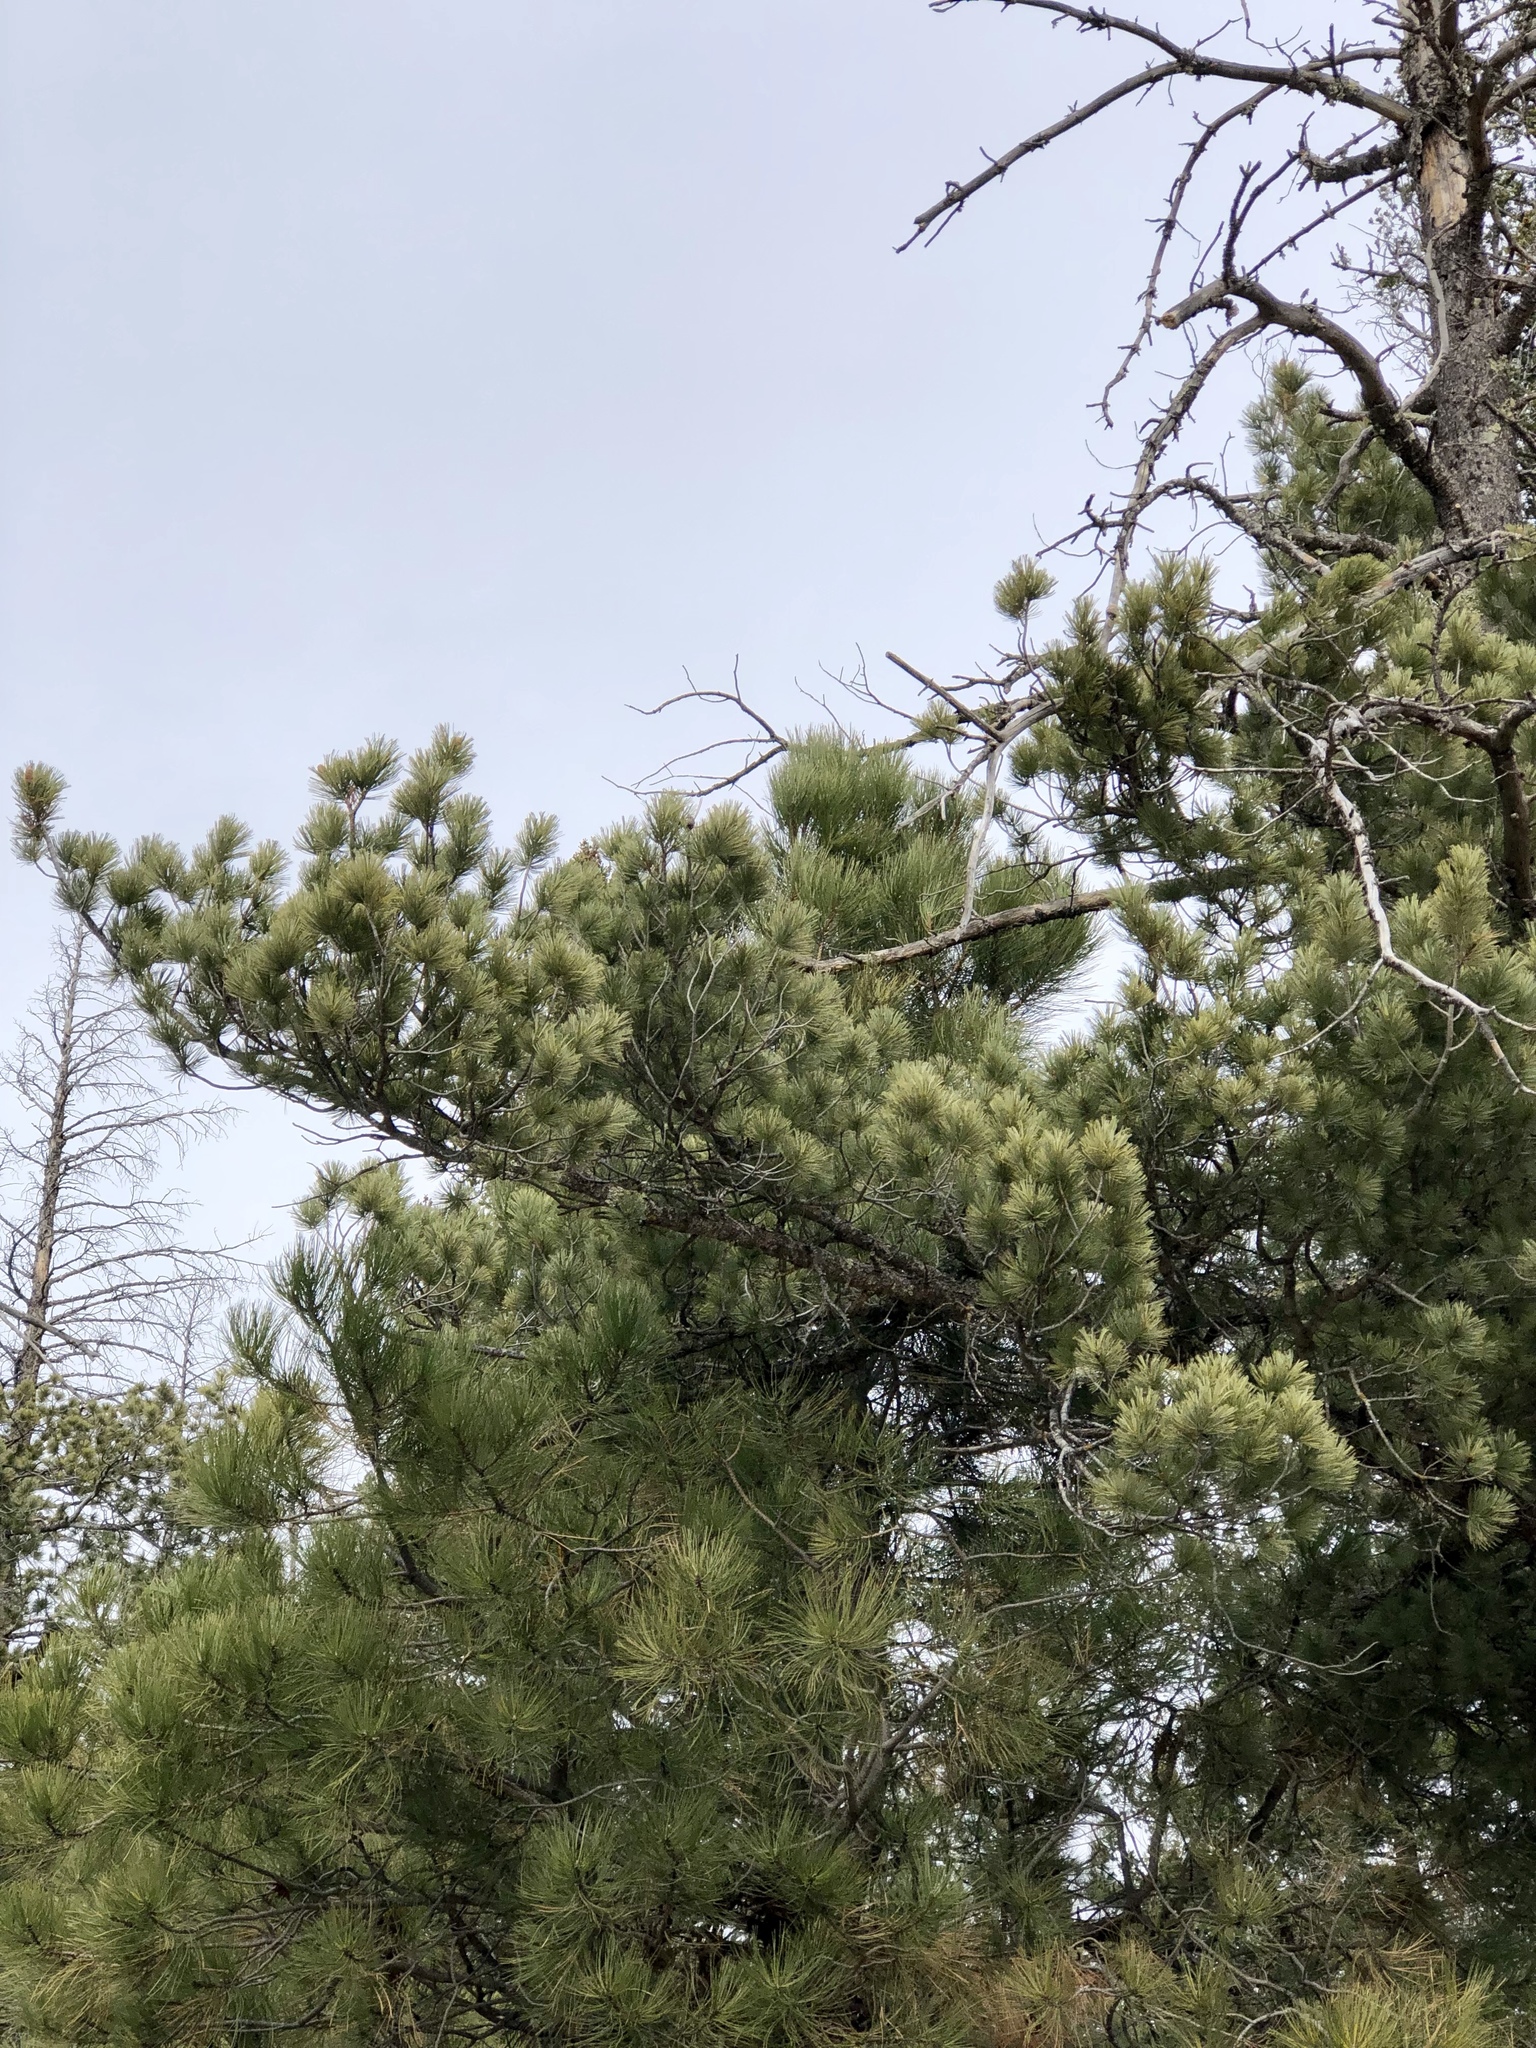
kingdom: Plantae
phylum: Tracheophyta
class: Pinopsida
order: Pinales
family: Pinaceae
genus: Pinus
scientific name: Pinus strobiformis
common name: Southwestern white pine
